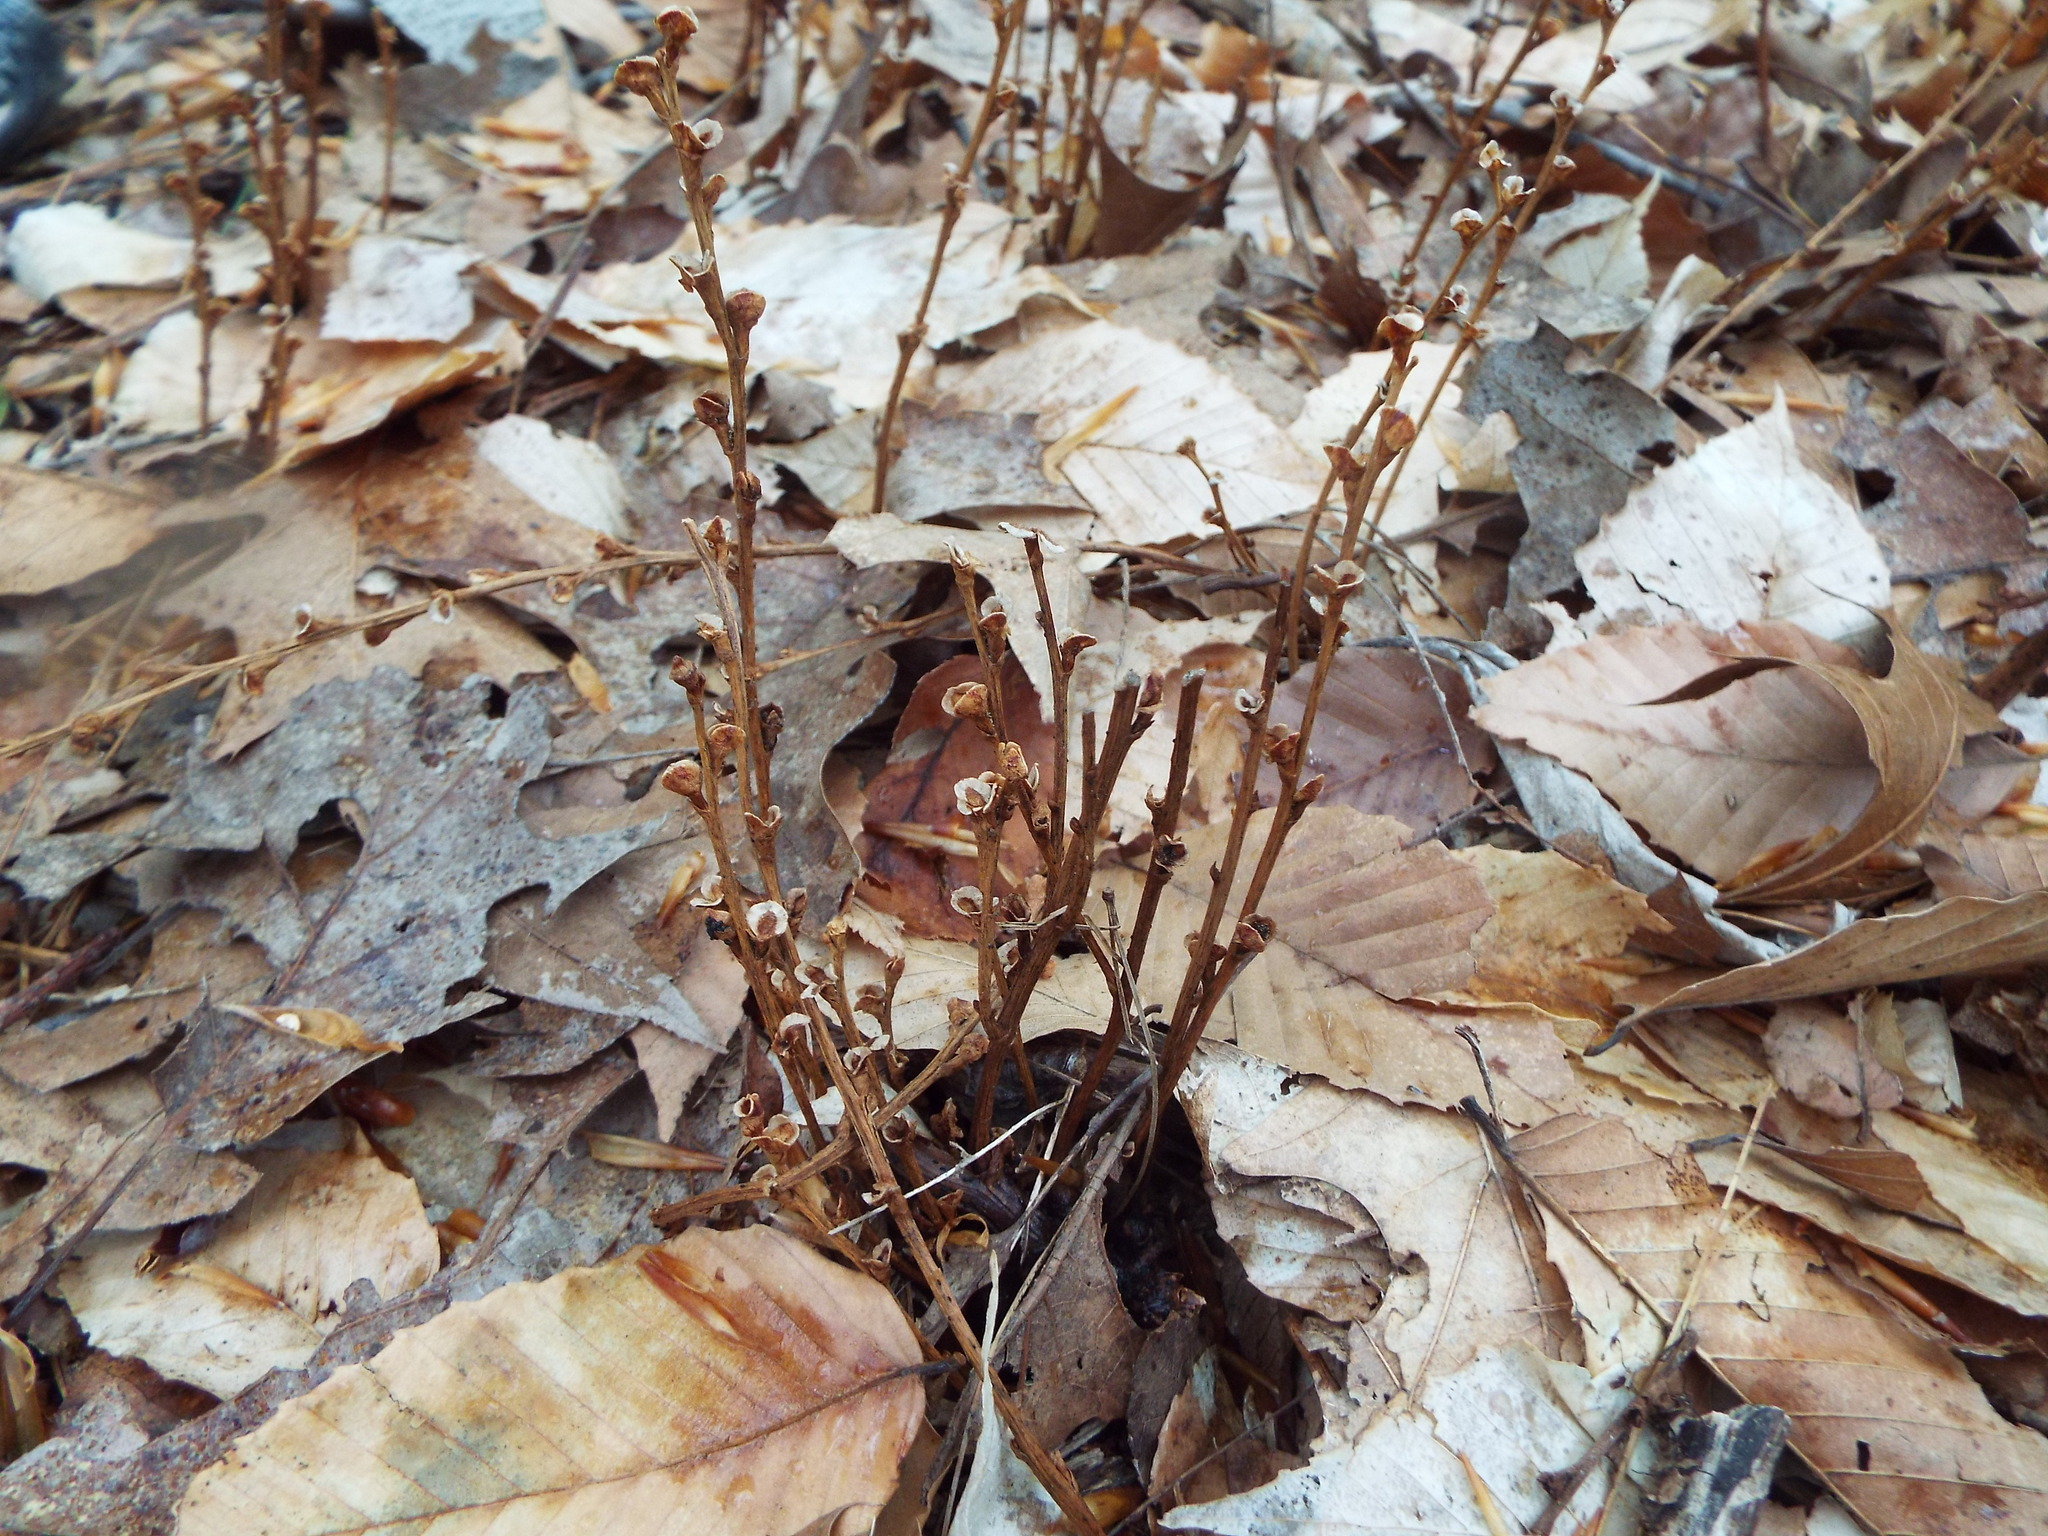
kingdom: Plantae
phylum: Tracheophyta
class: Magnoliopsida
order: Lamiales
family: Orobanchaceae
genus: Epifagus
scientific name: Epifagus virginiana
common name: Beechdrops
